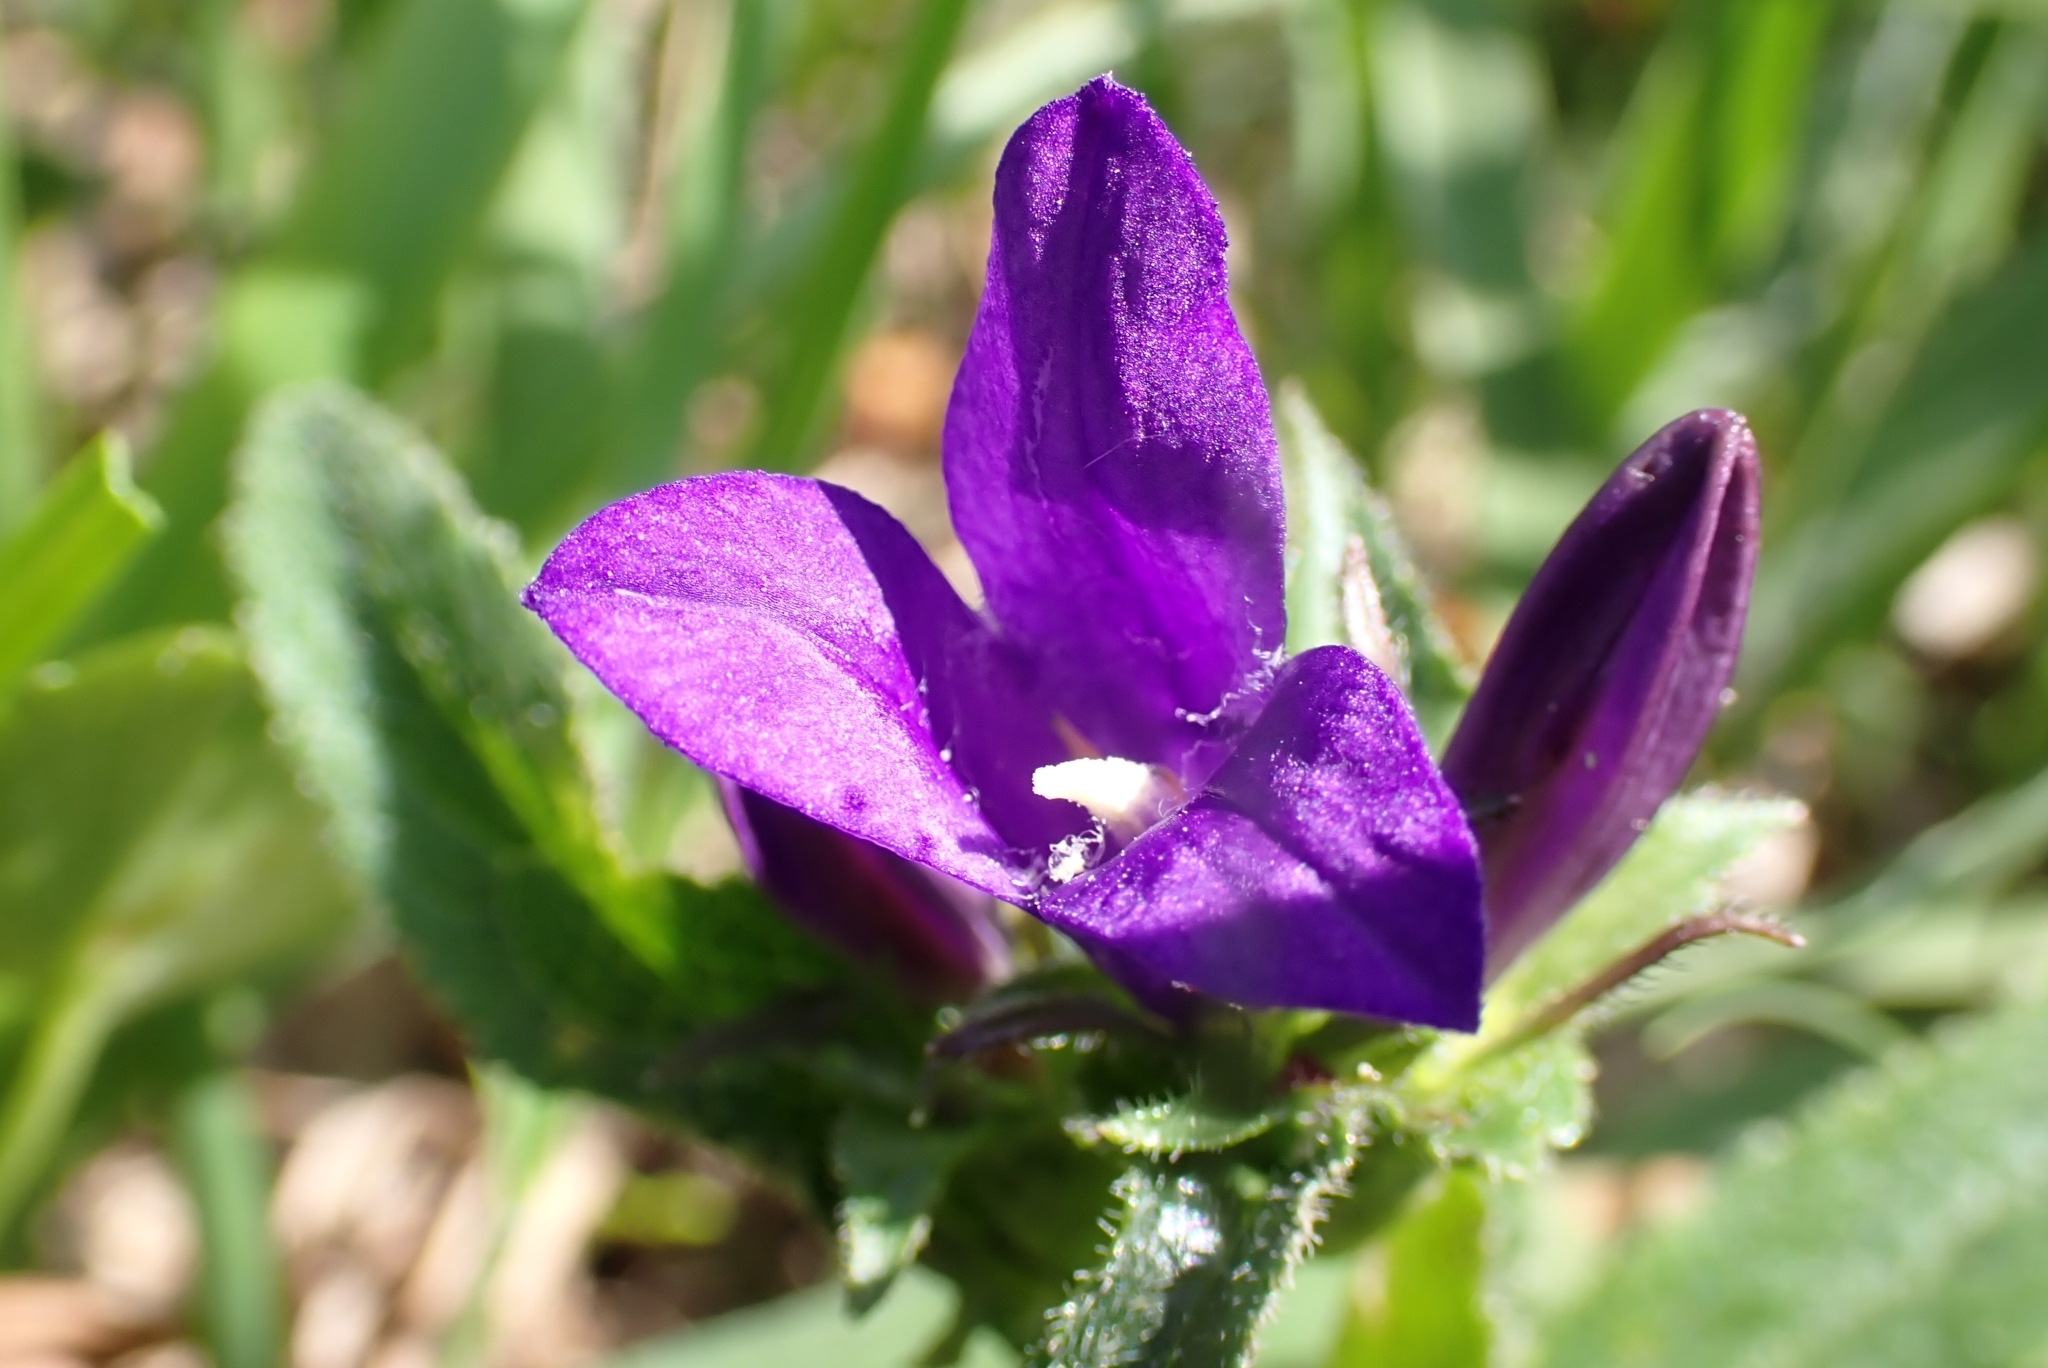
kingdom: Plantae
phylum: Tracheophyta
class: Magnoliopsida
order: Asterales
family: Campanulaceae
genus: Campanula
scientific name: Campanula glomerata
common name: Clustered bellflower
